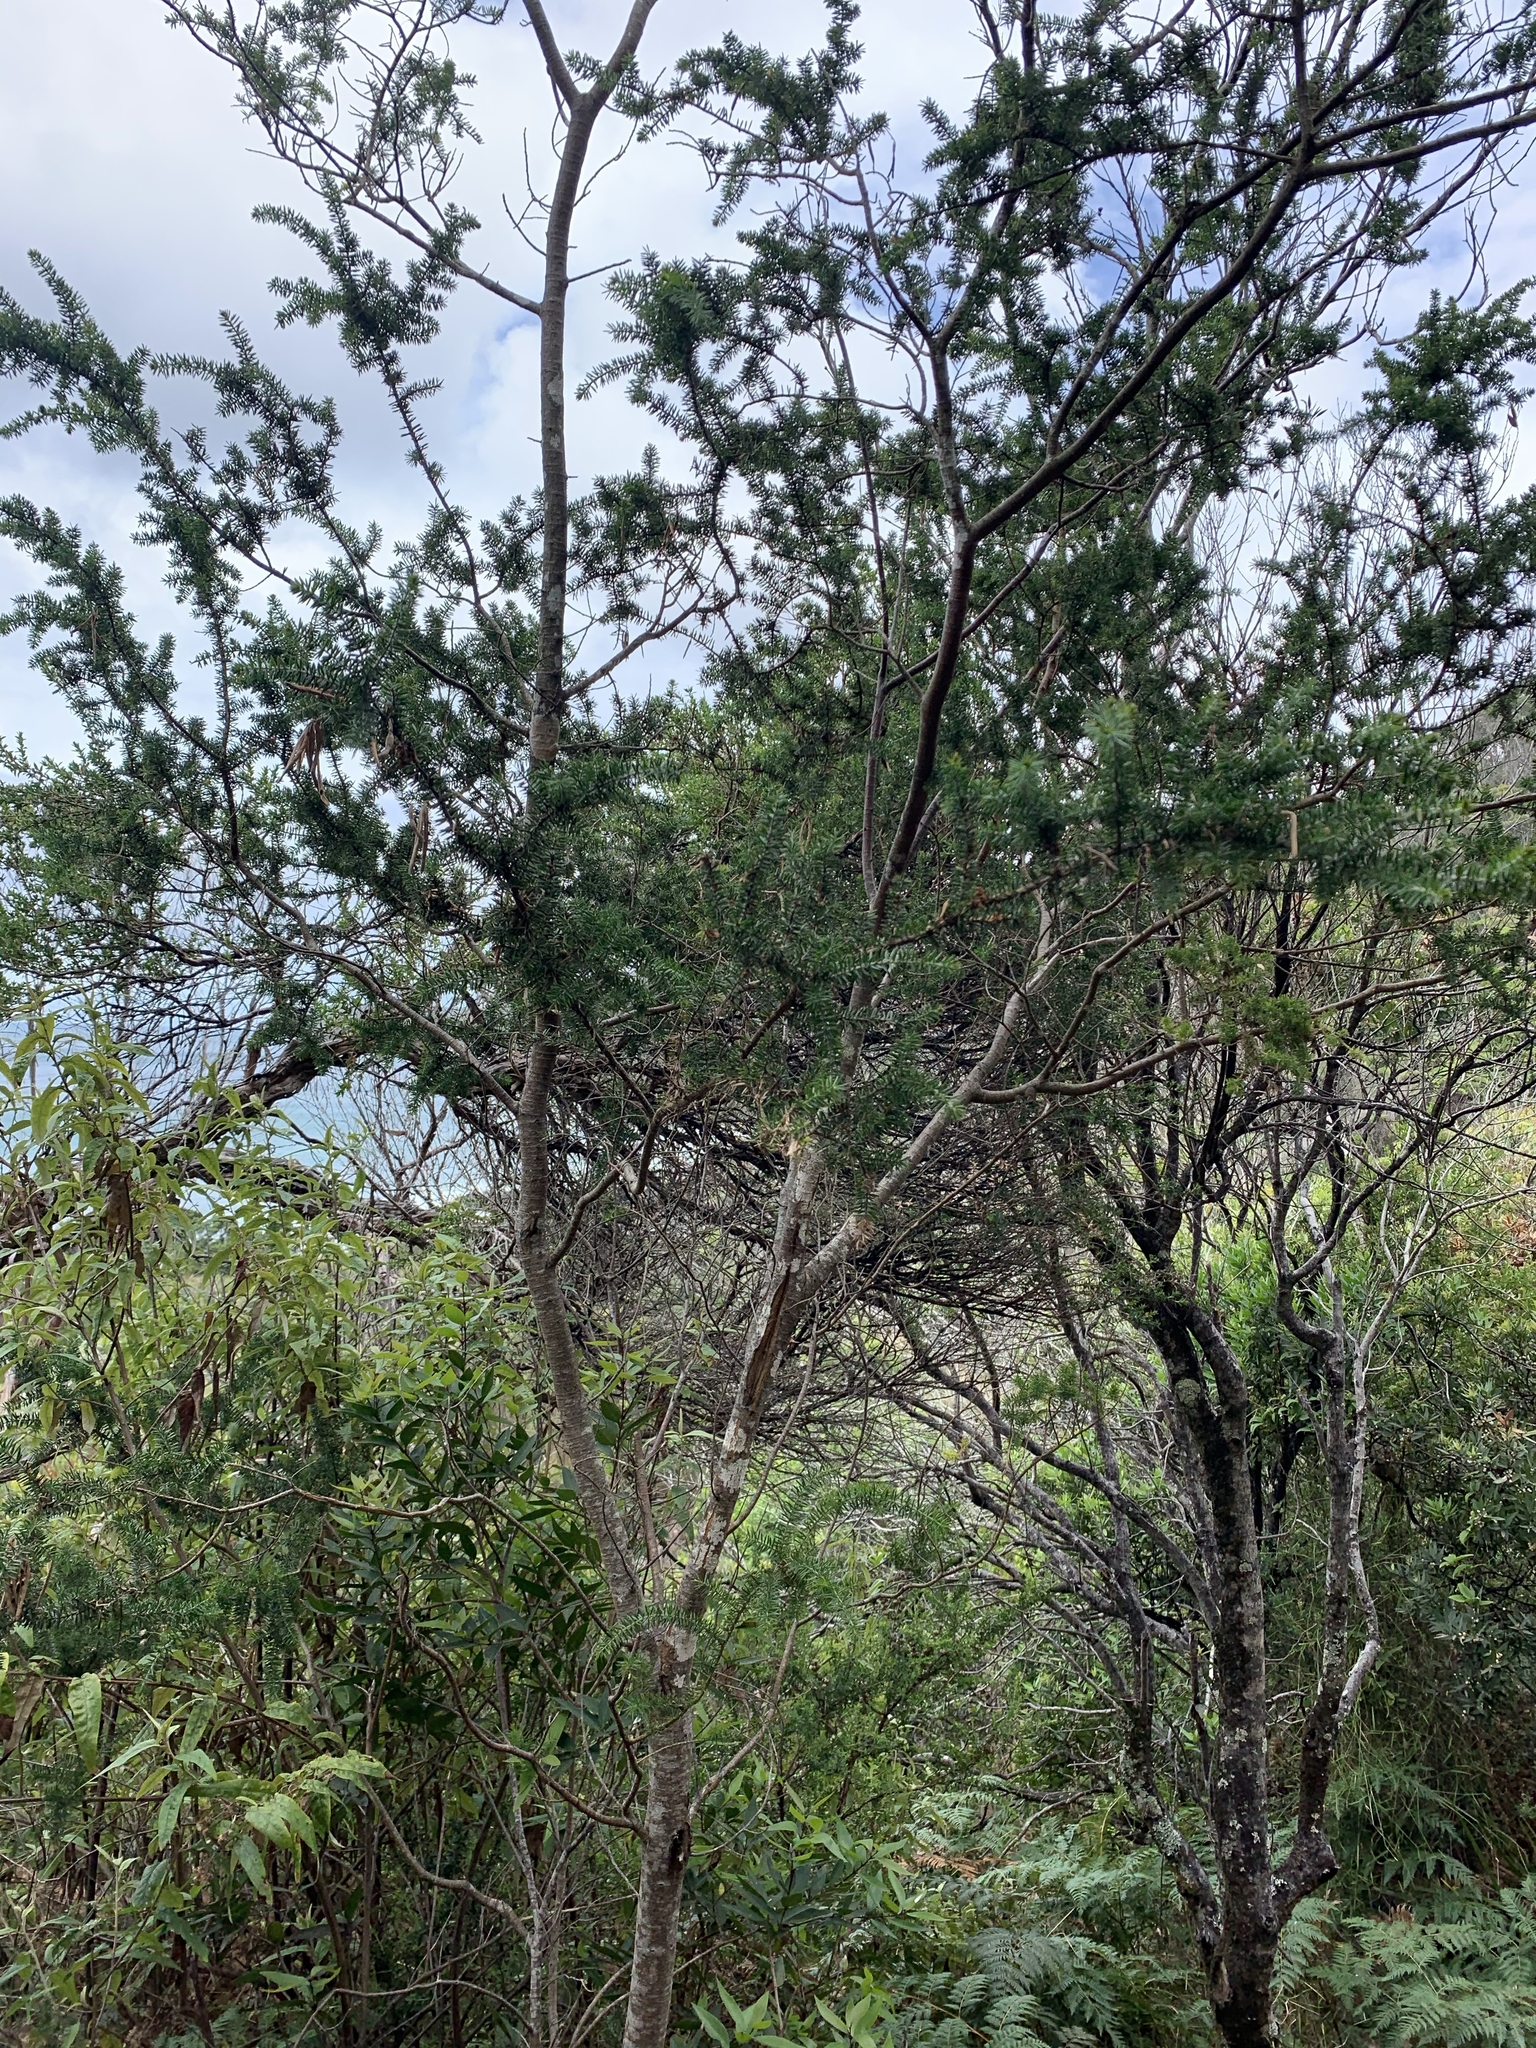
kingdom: Plantae
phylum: Tracheophyta
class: Magnoliopsida
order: Fabales
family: Fabaceae
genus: Acacia
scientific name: Acacia verticillata
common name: Prickly moses
